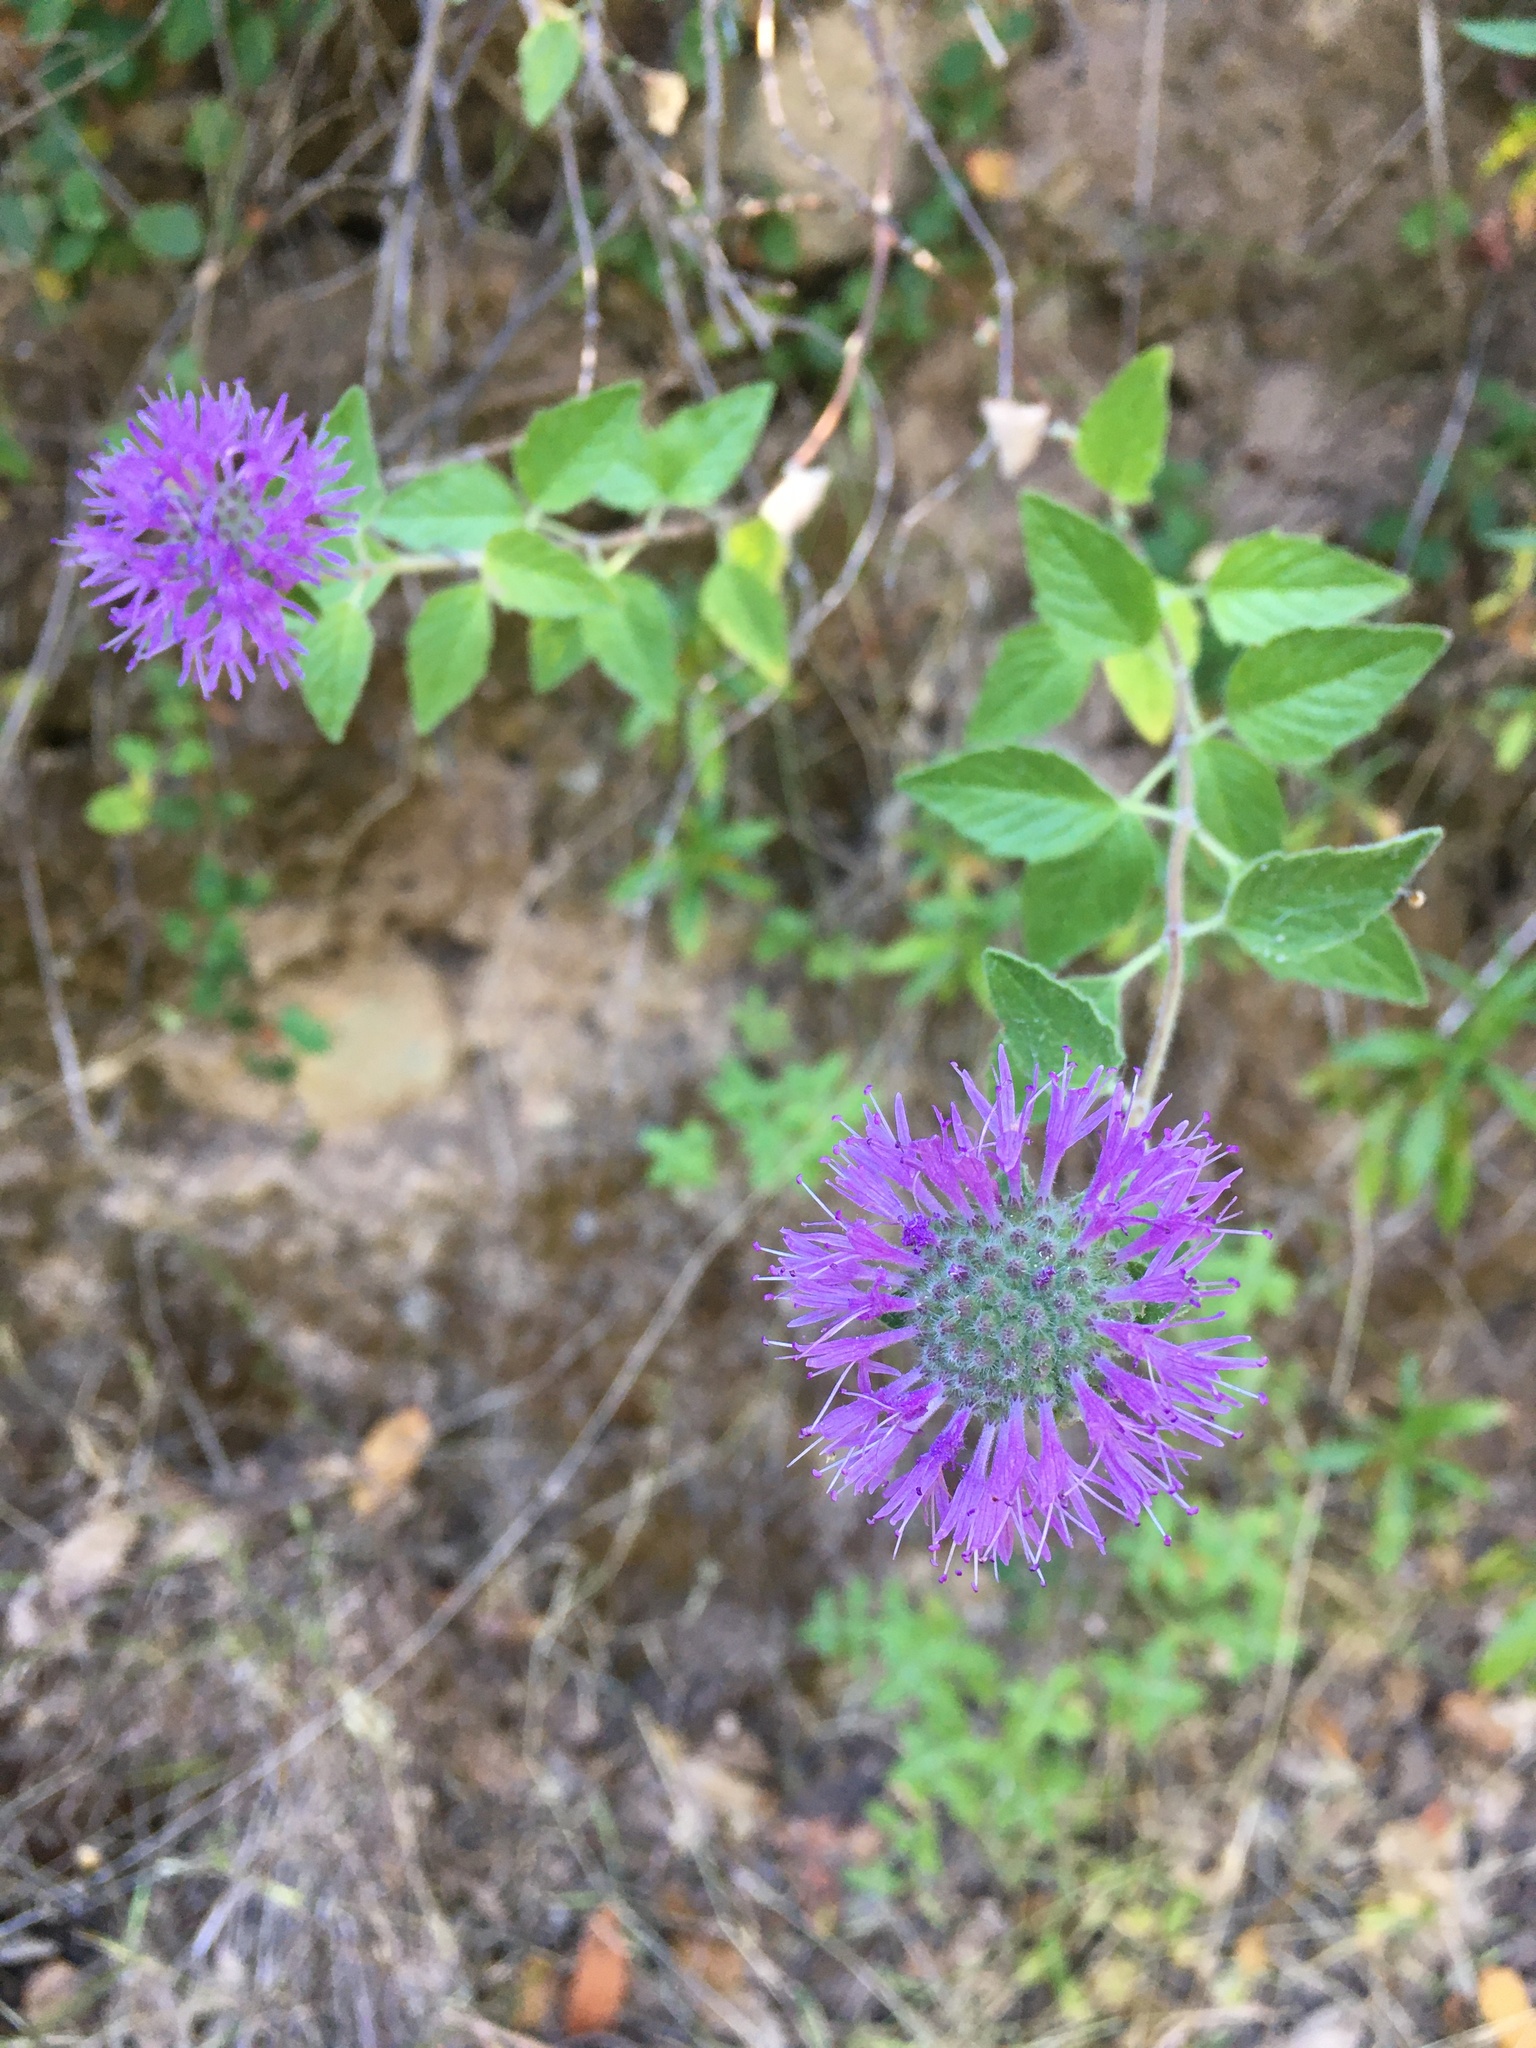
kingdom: Plantae
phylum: Tracheophyta
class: Magnoliopsida
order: Lamiales
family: Lamiaceae
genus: Monardella
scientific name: Monardella odoratissima
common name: Pacific monardella
